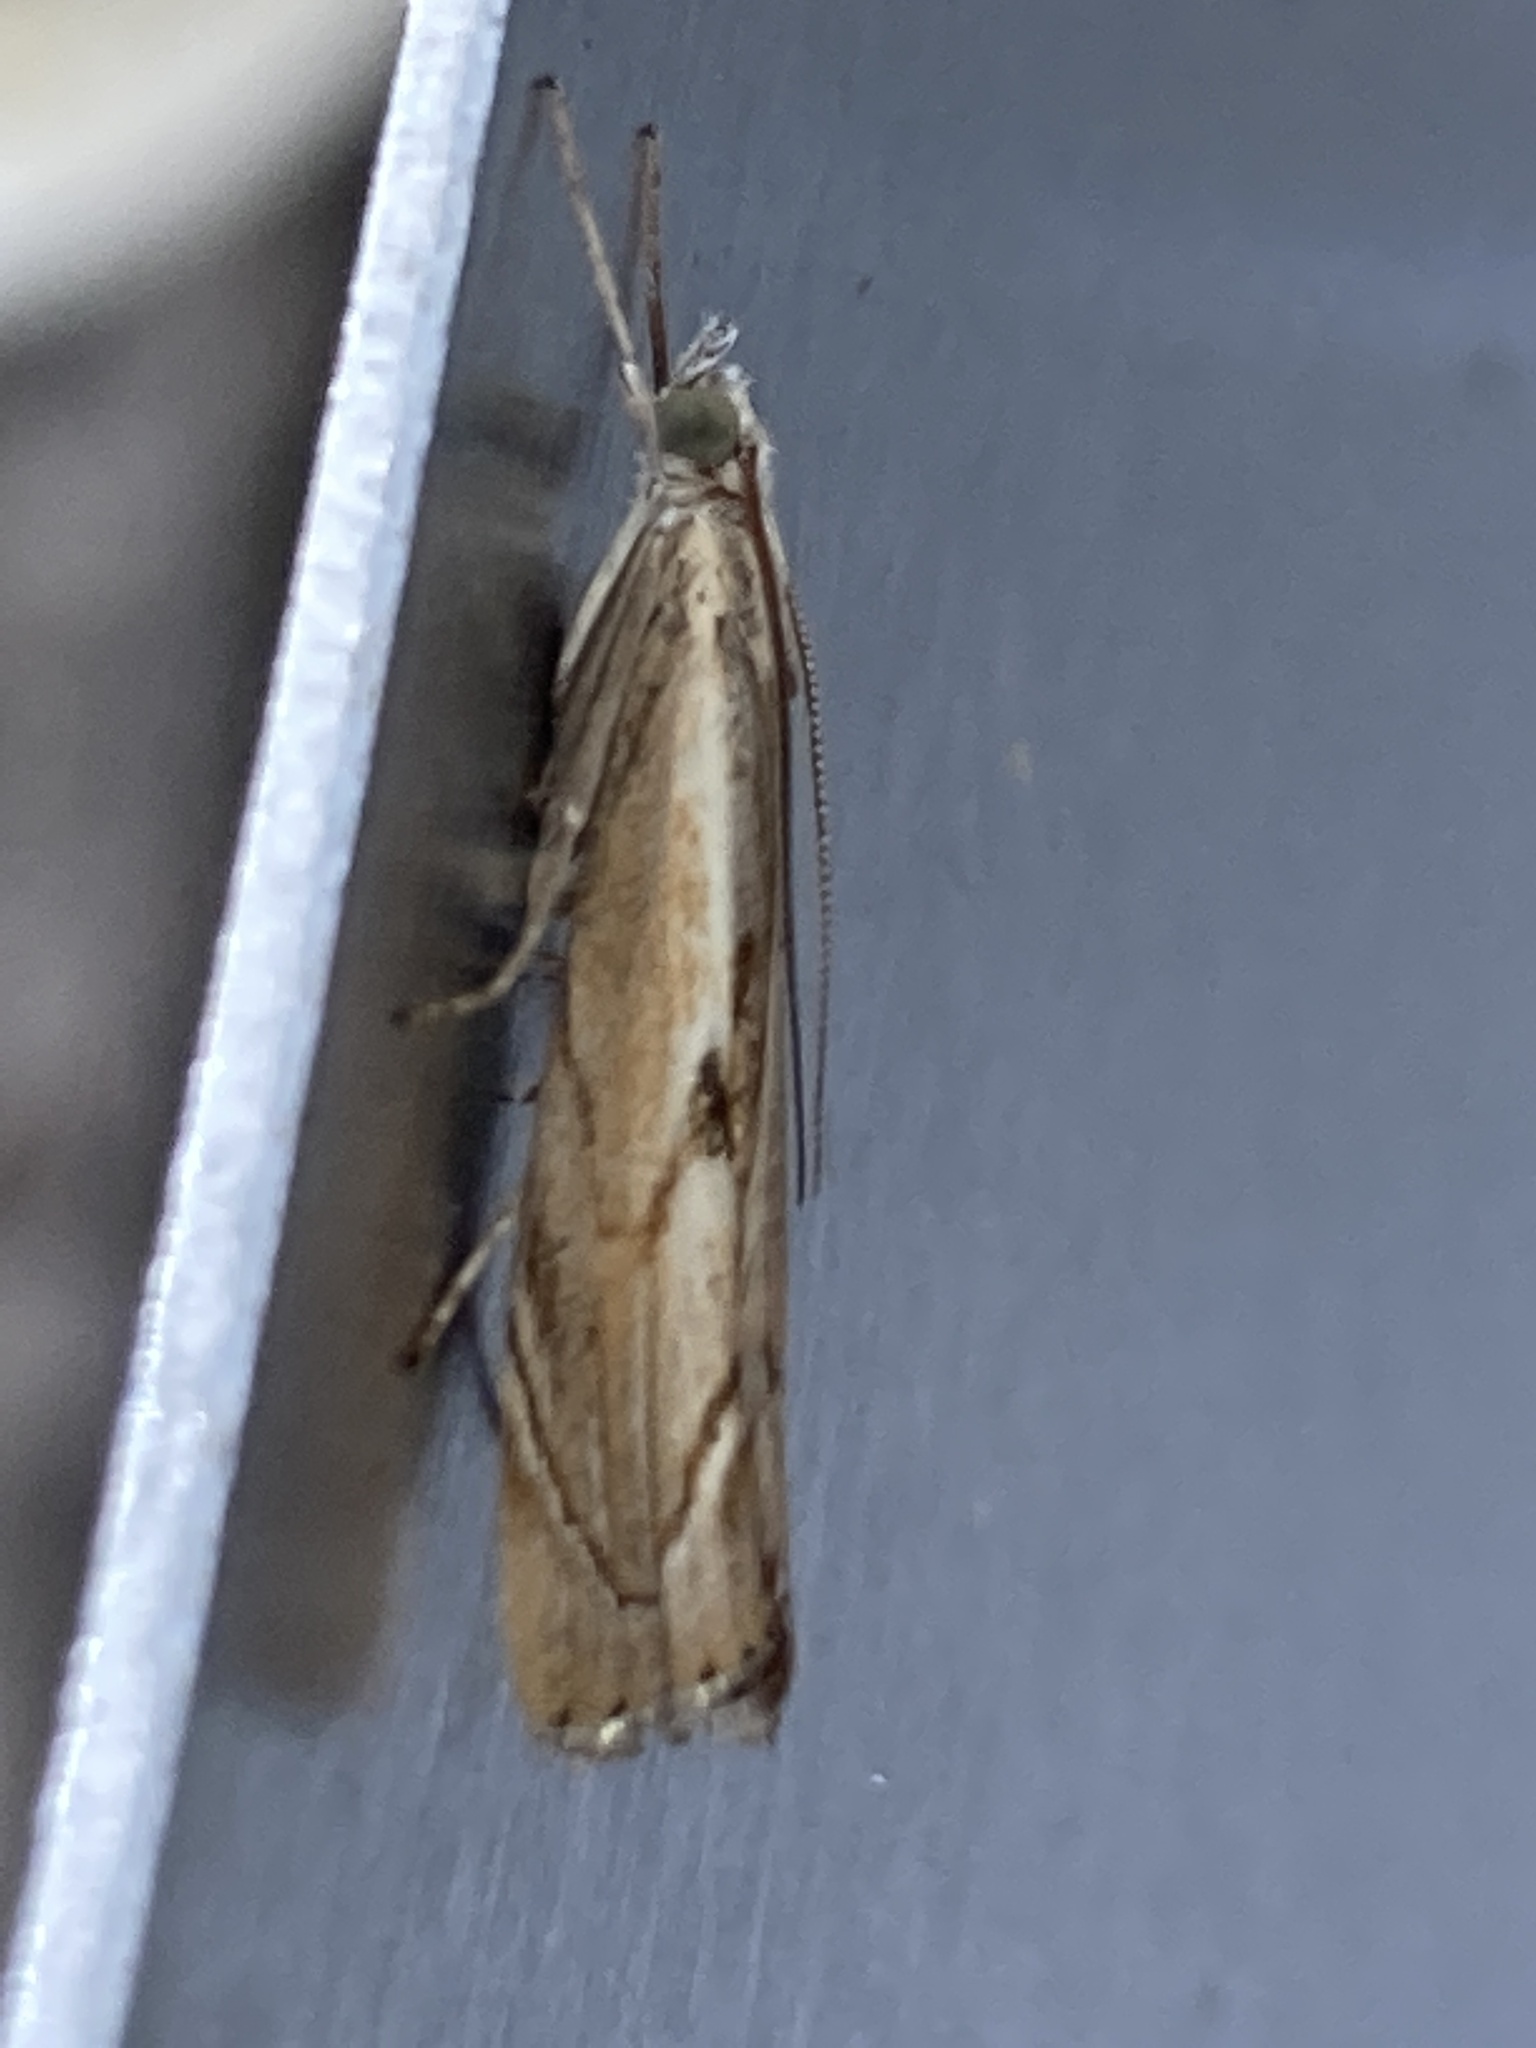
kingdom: Animalia
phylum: Arthropoda
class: Insecta
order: Lepidoptera
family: Crambidae
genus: Agriphila
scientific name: Agriphila geniculea
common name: Elbow-stripe grass-veneer
